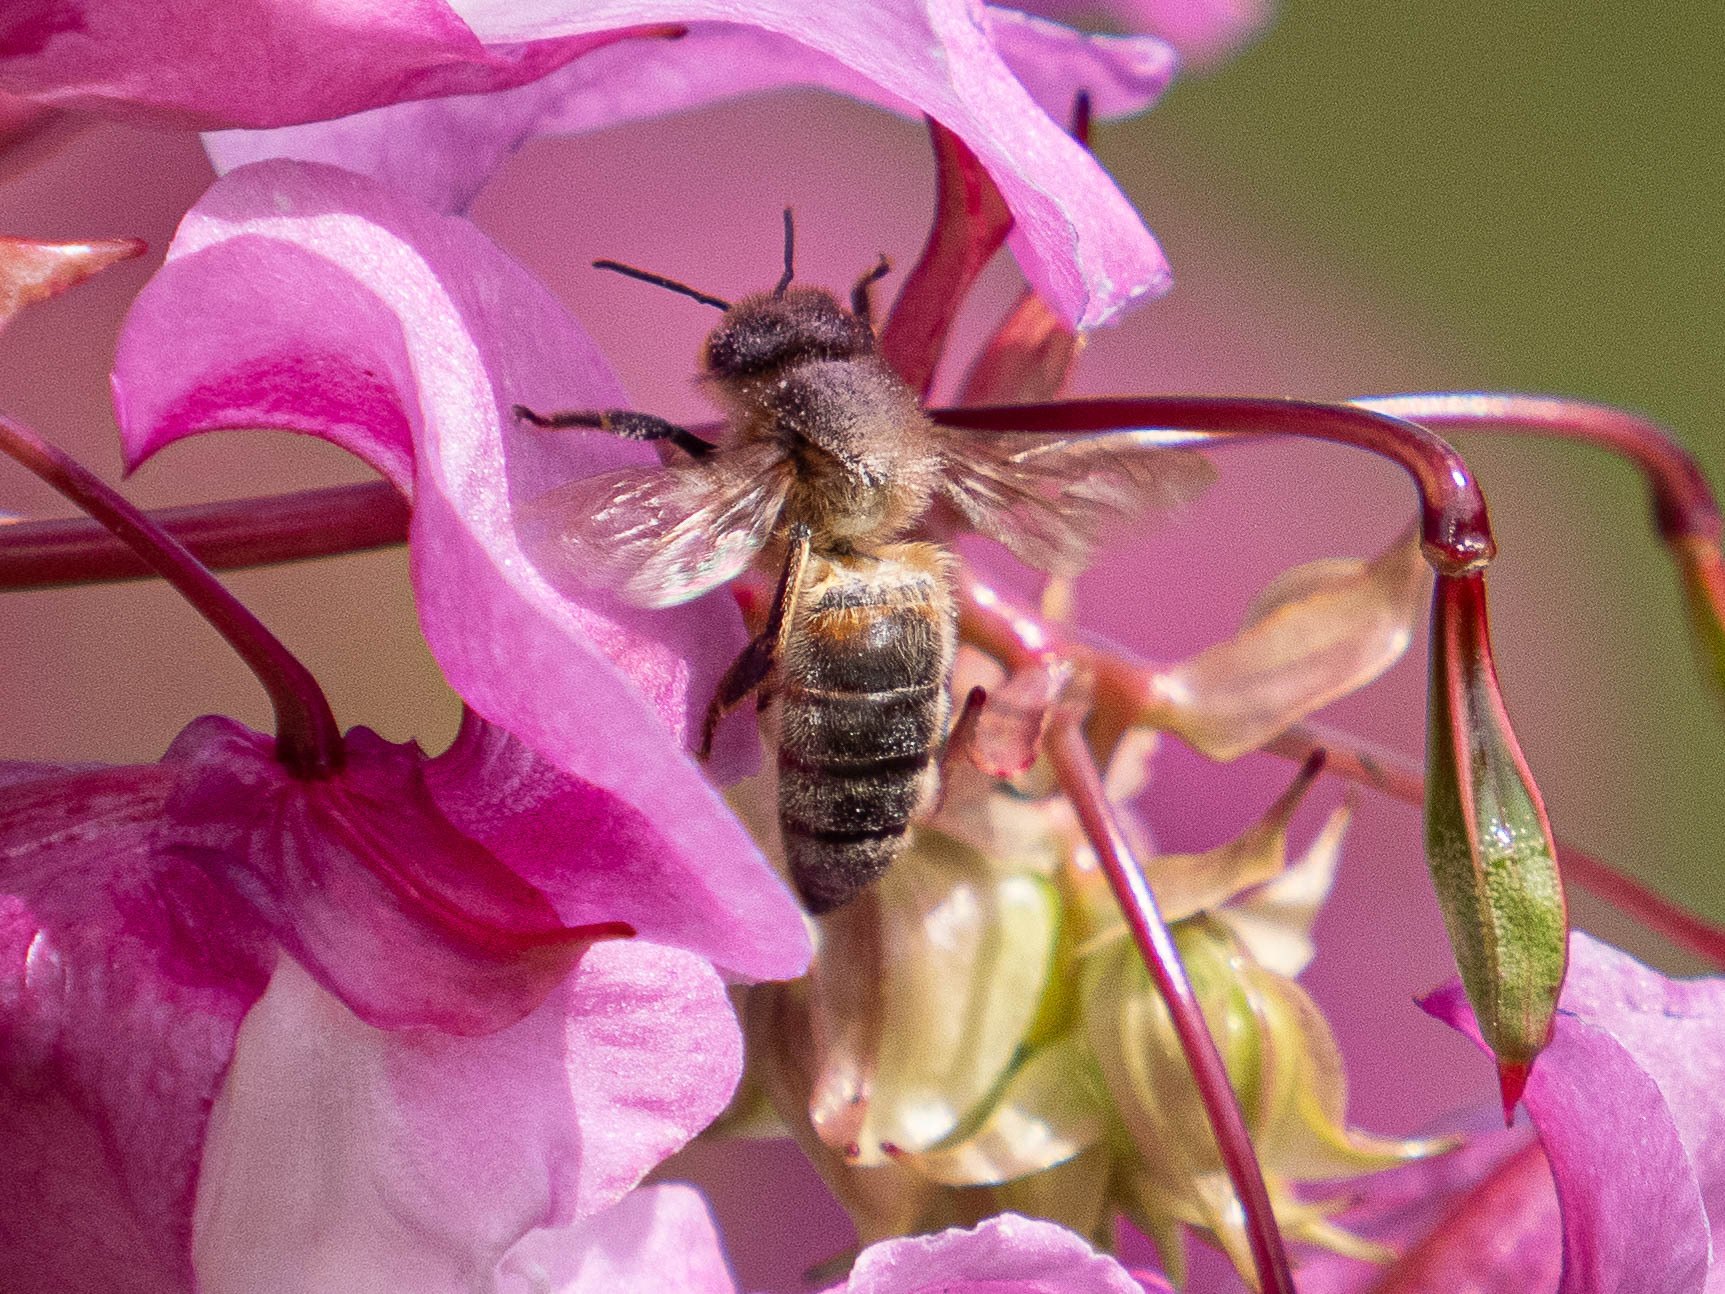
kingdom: Animalia
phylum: Arthropoda
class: Insecta
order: Hymenoptera
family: Apidae
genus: Apis
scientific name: Apis mellifera
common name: Honey bee
